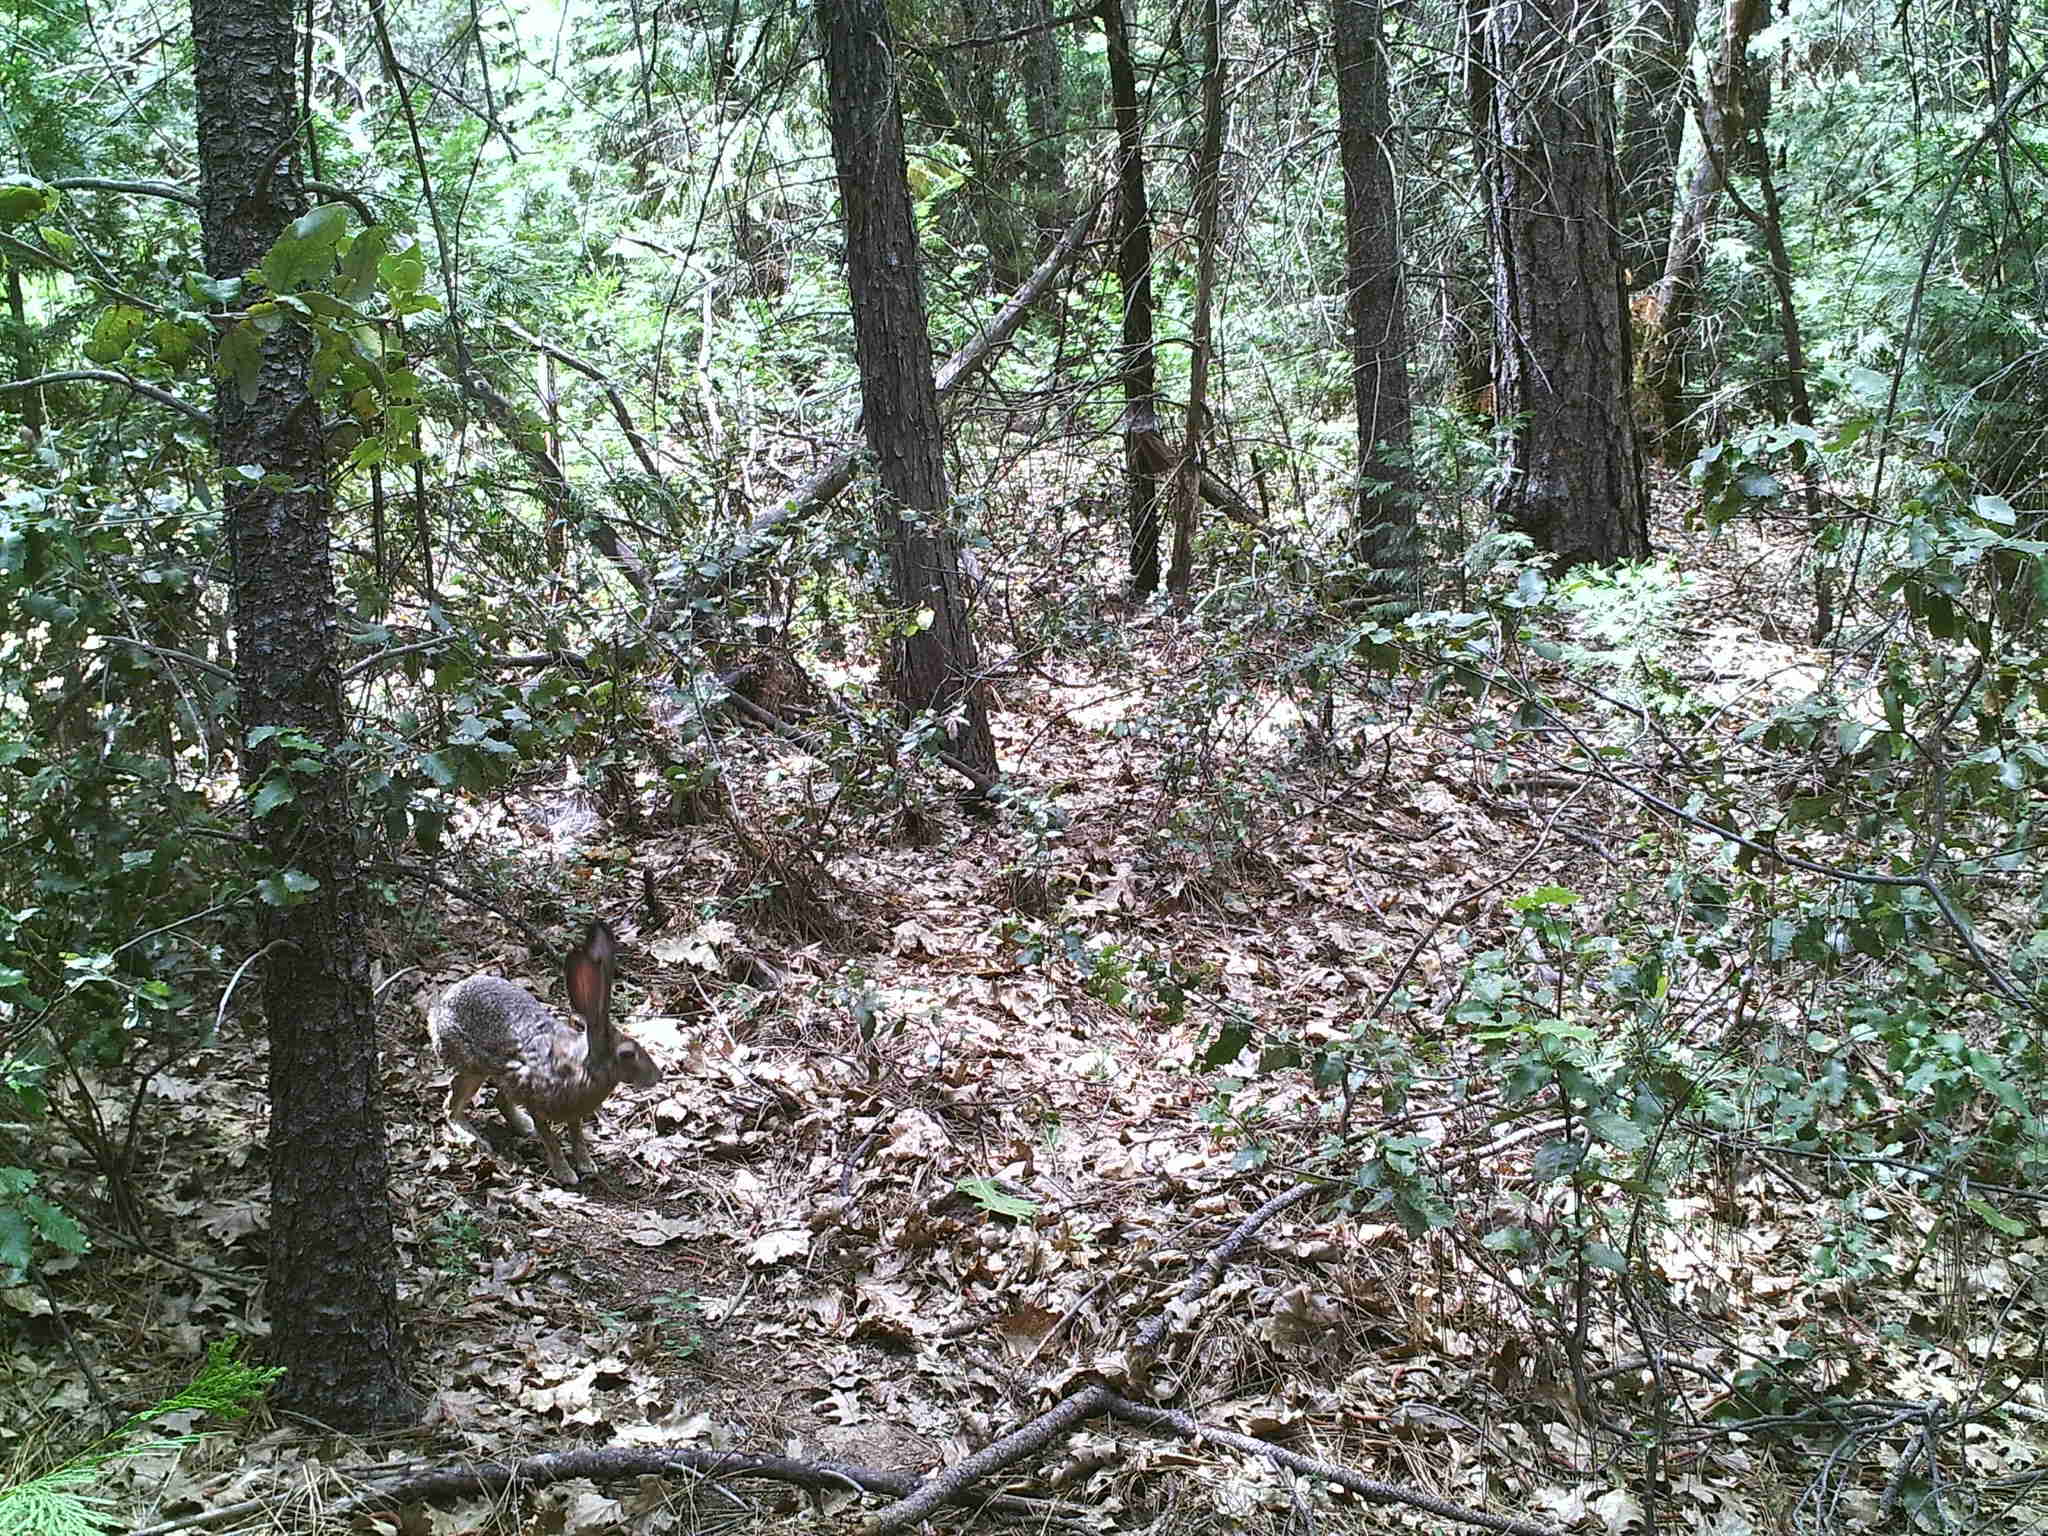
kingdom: Animalia
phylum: Chordata
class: Mammalia
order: Lagomorpha
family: Leporidae
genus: Lepus
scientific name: Lepus californicus
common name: Black-tailed jackrabbit
